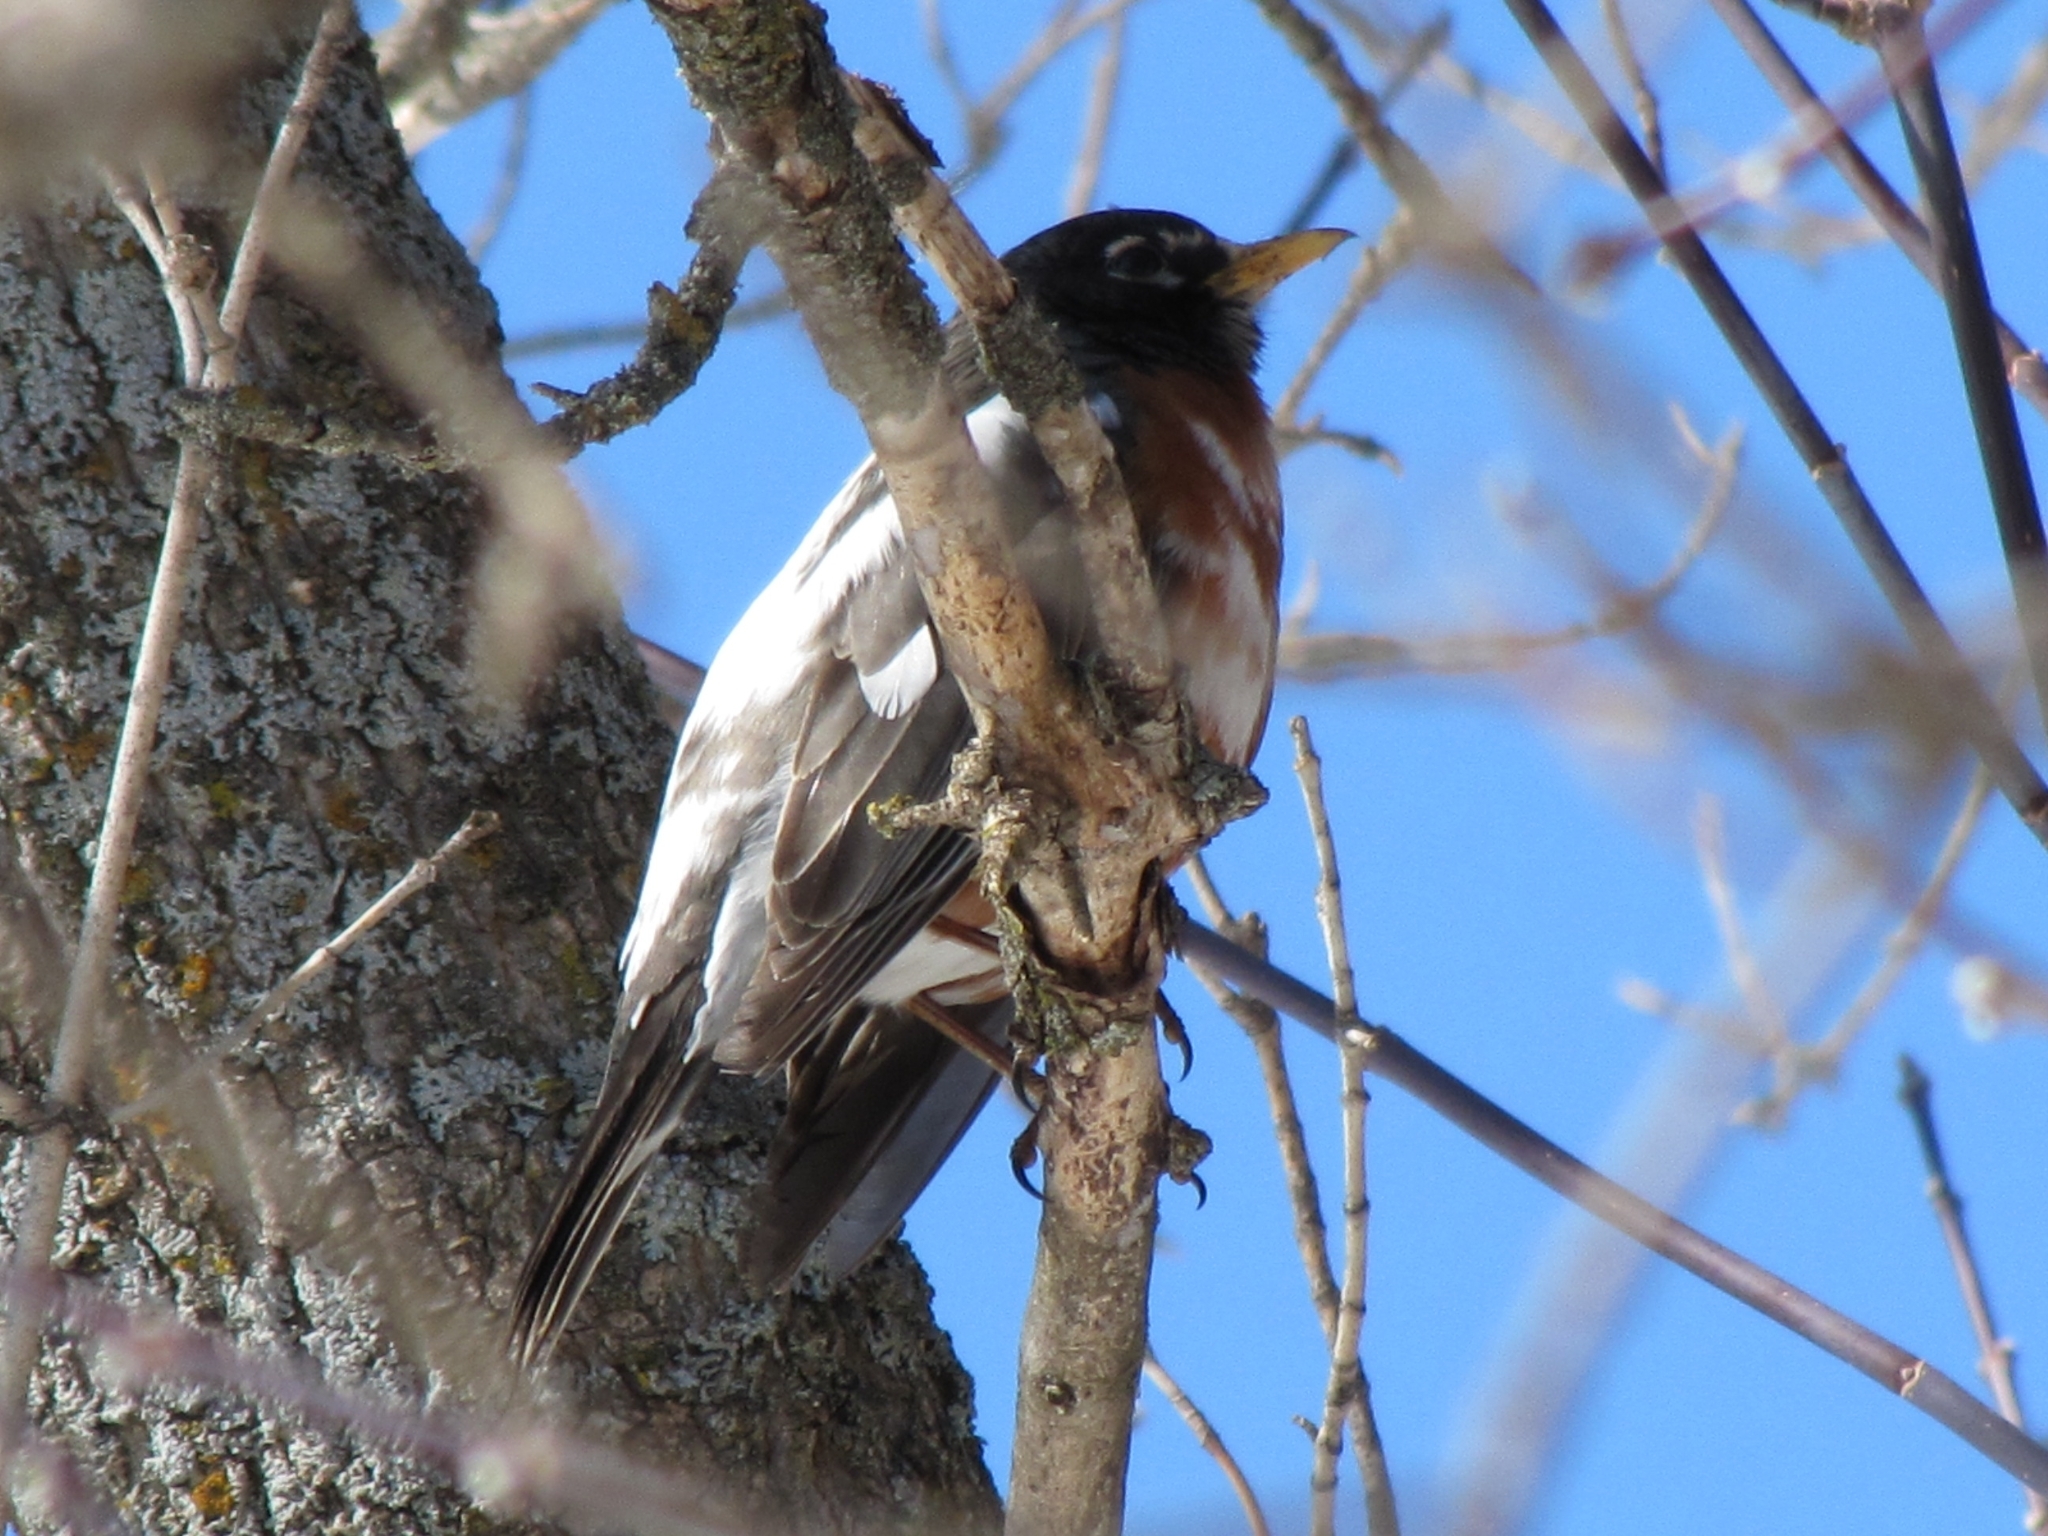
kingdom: Animalia
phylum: Chordata
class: Aves
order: Passeriformes
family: Turdidae
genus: Turdus
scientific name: Turdus migratorius
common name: American robin
